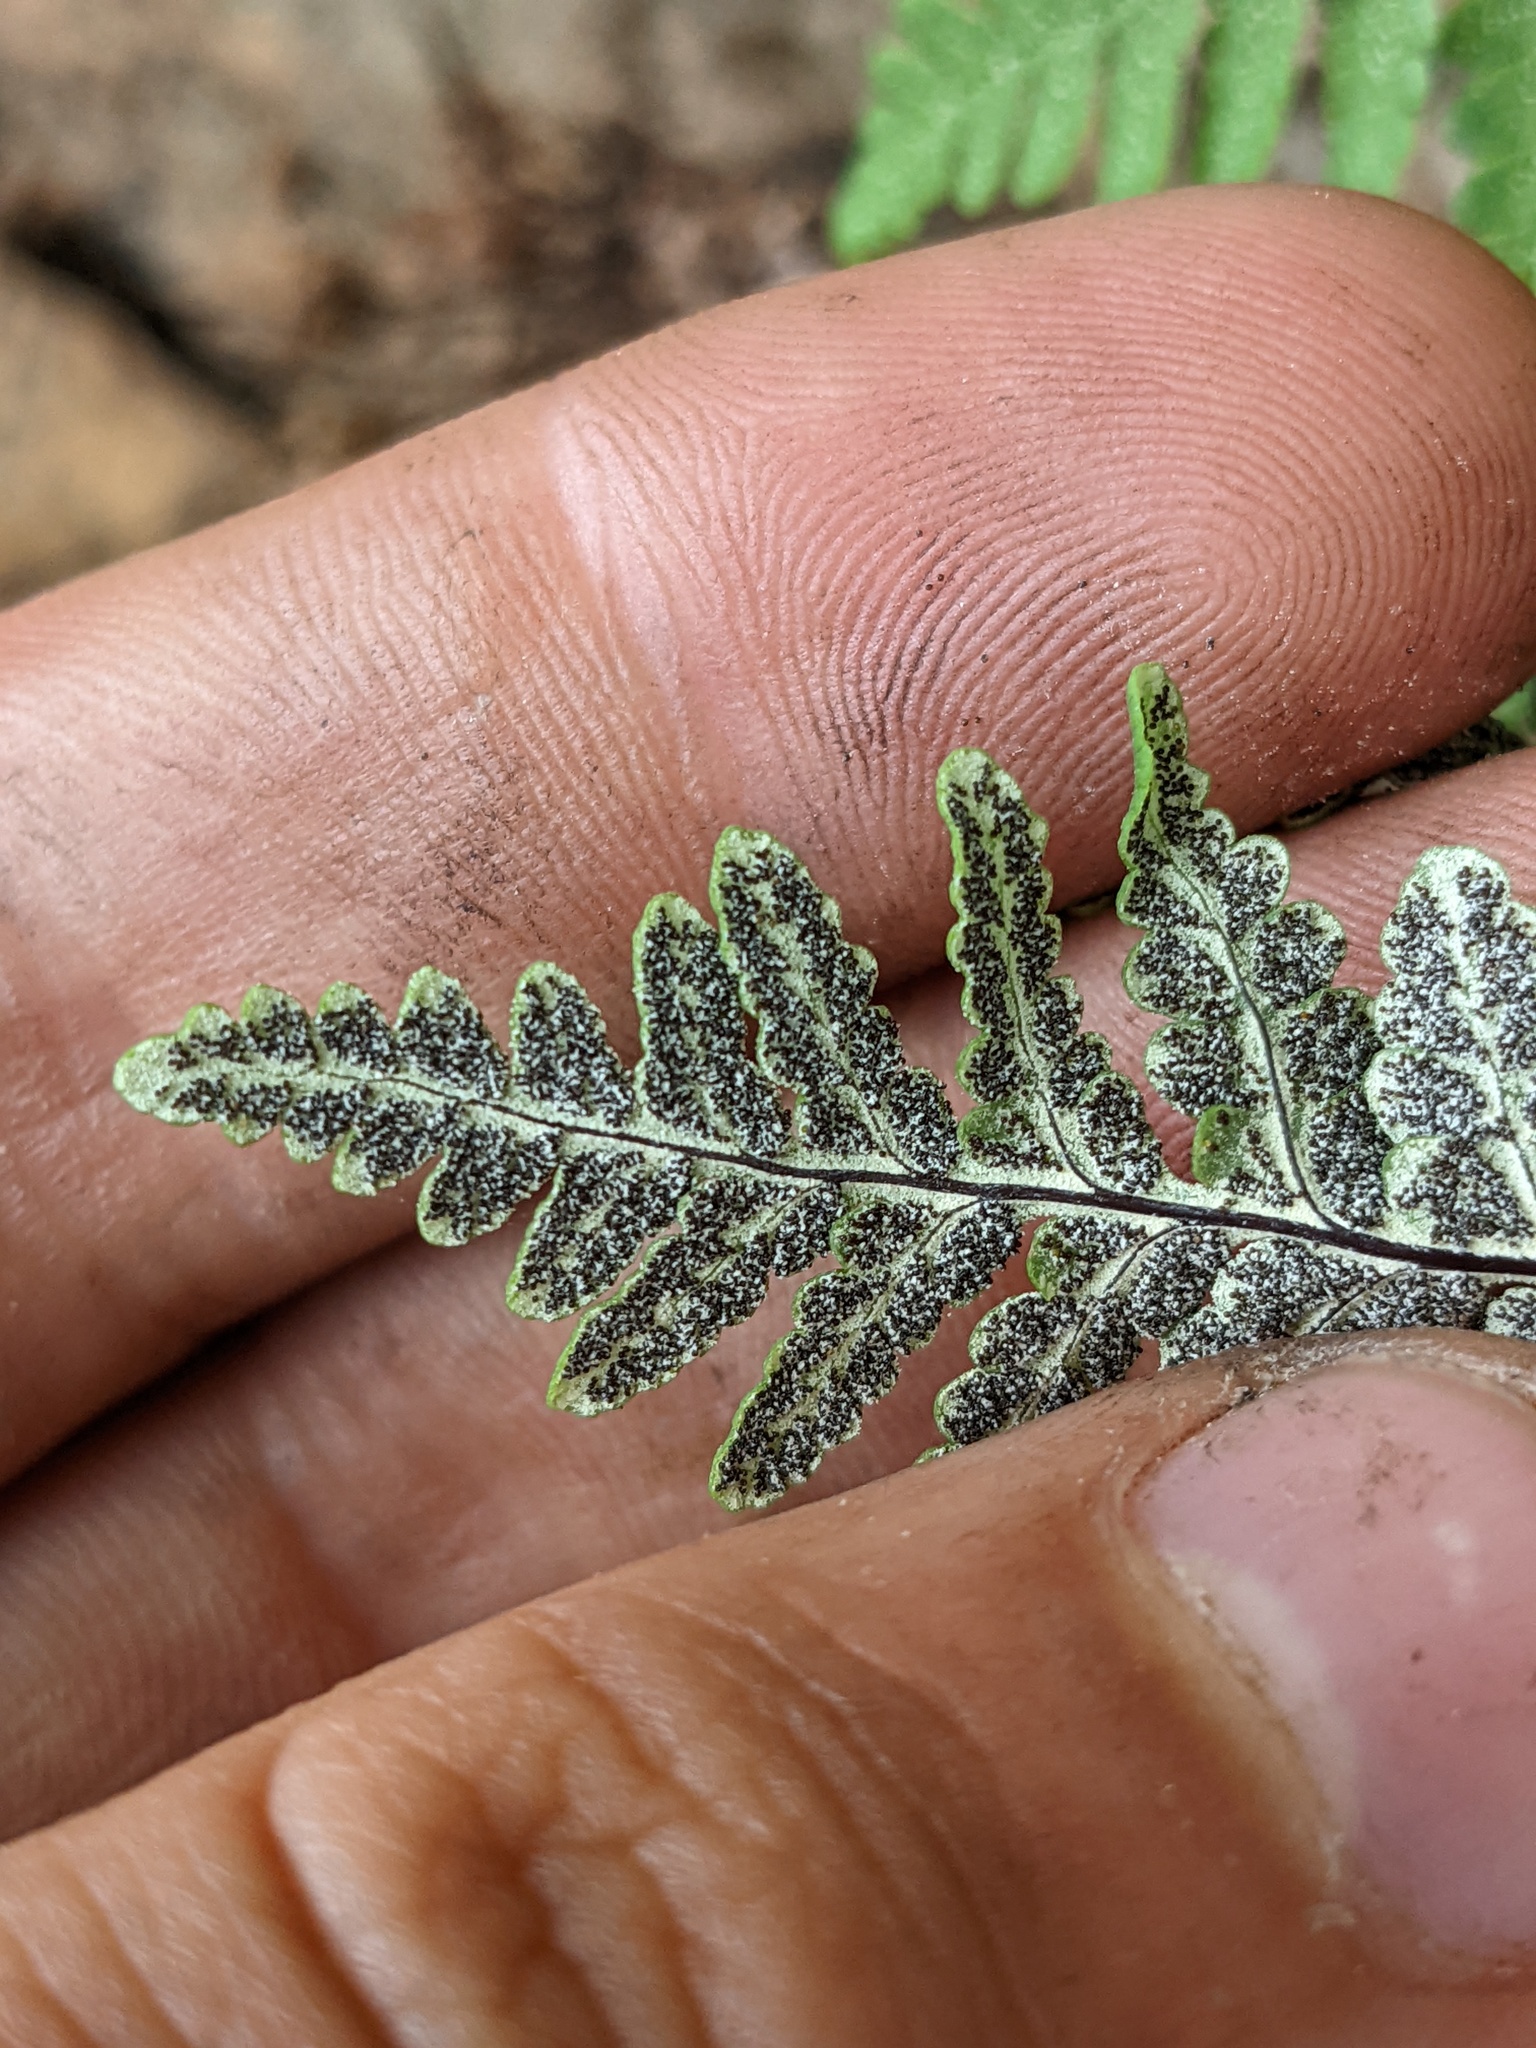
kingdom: Plantae
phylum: Tracheophyta
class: Polypodiopsida
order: Polypodiales
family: Pteridaceae
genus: Pentagramma
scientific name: Pentagramma rebmanii
